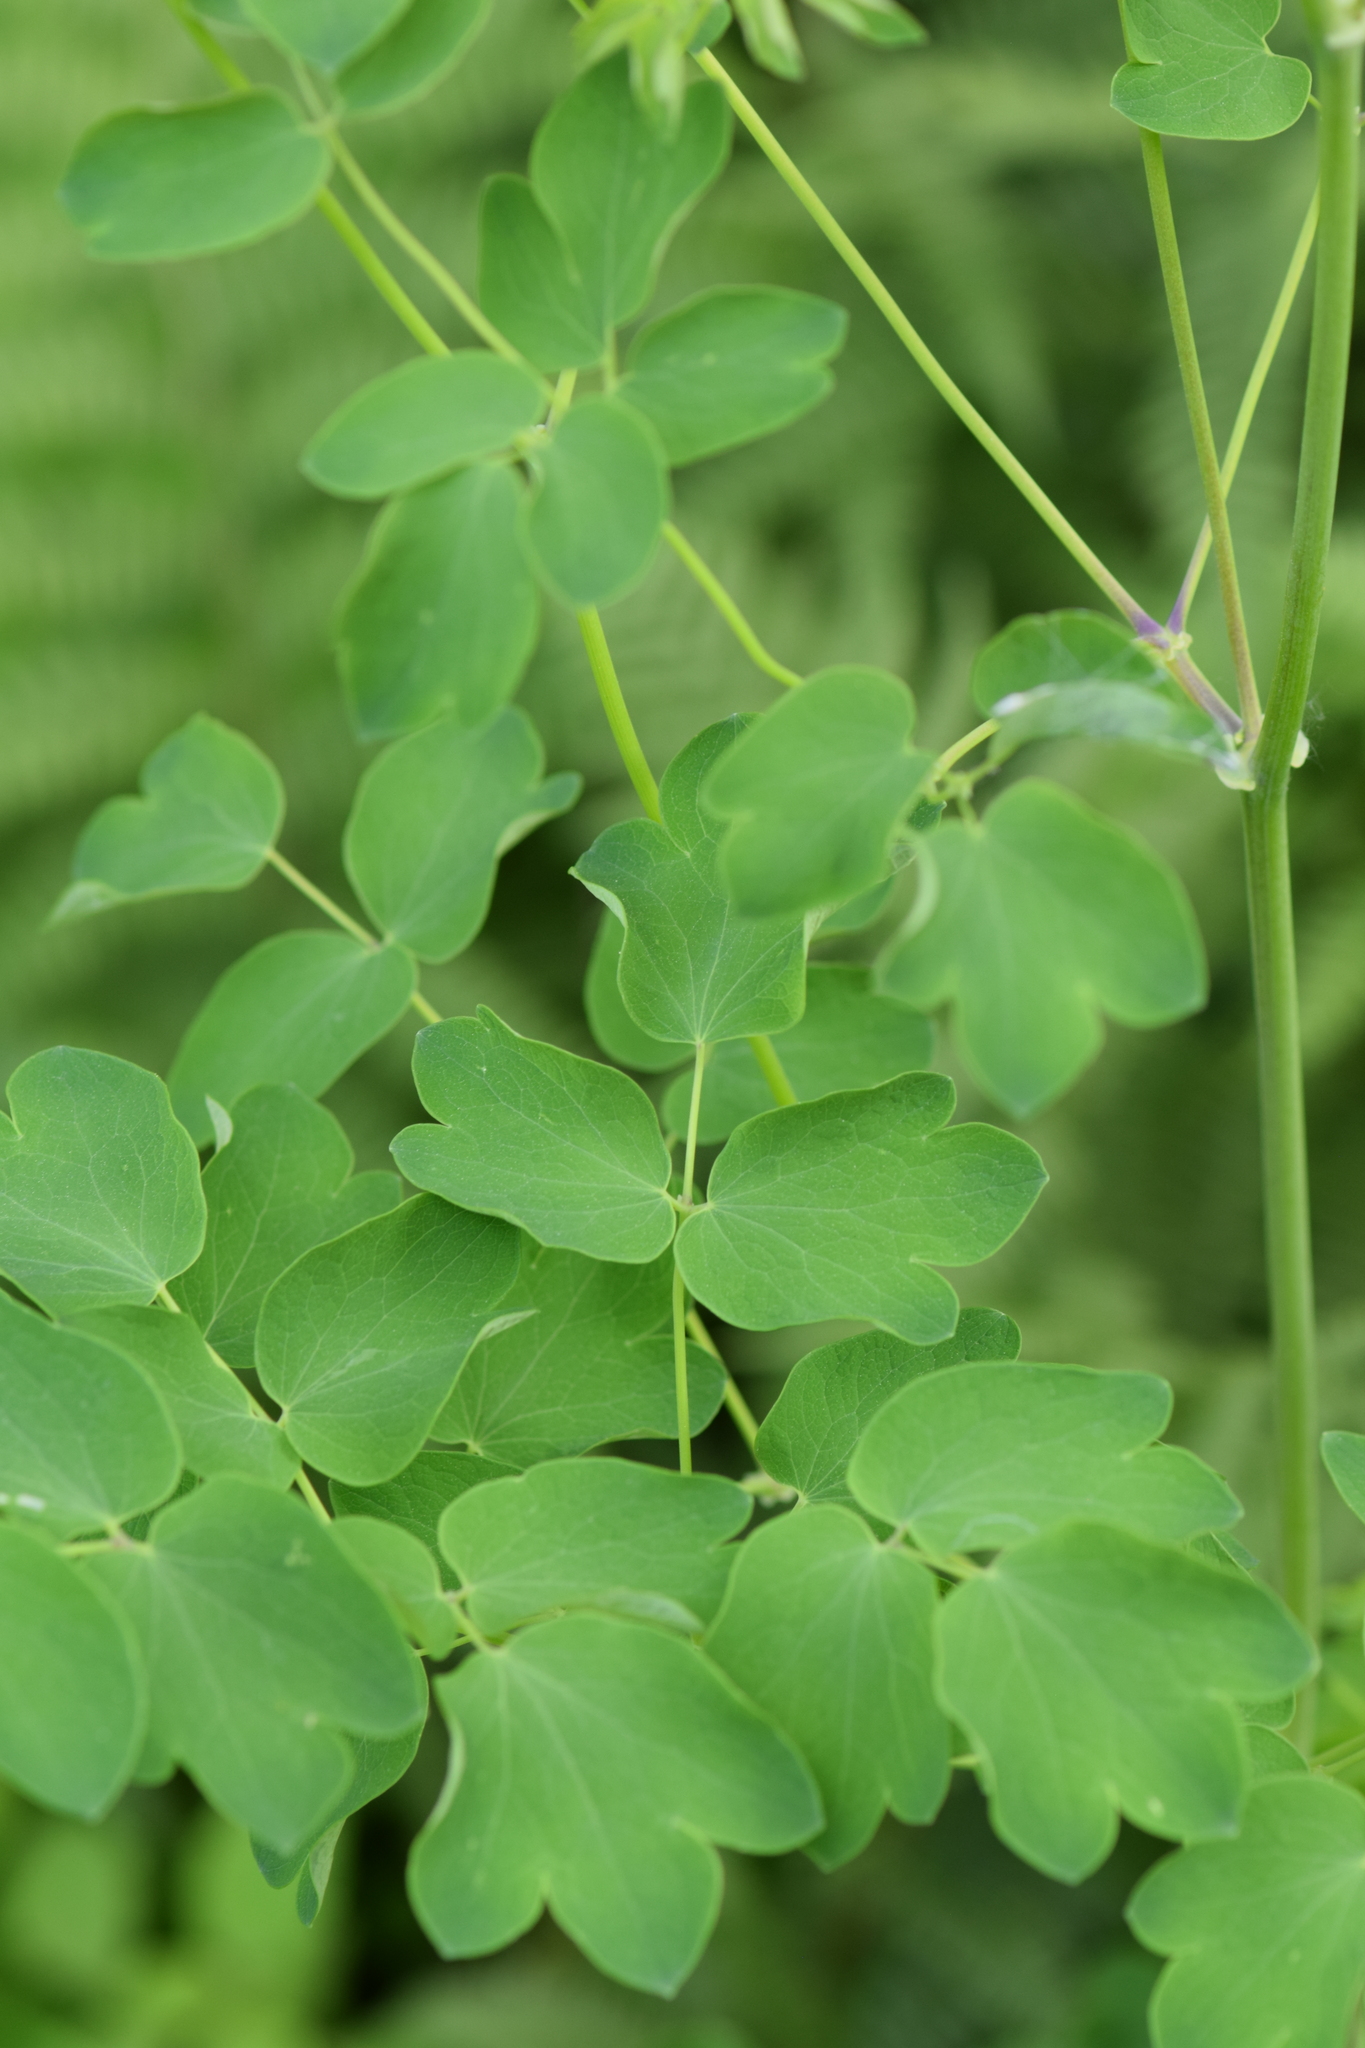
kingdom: Plantae
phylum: Tracheophyta
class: Magnoliopsida
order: Ranunculales
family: Ranunculaceae
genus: Thalictrum
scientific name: Thalictrum pubescens
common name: King-of-the-meadow
